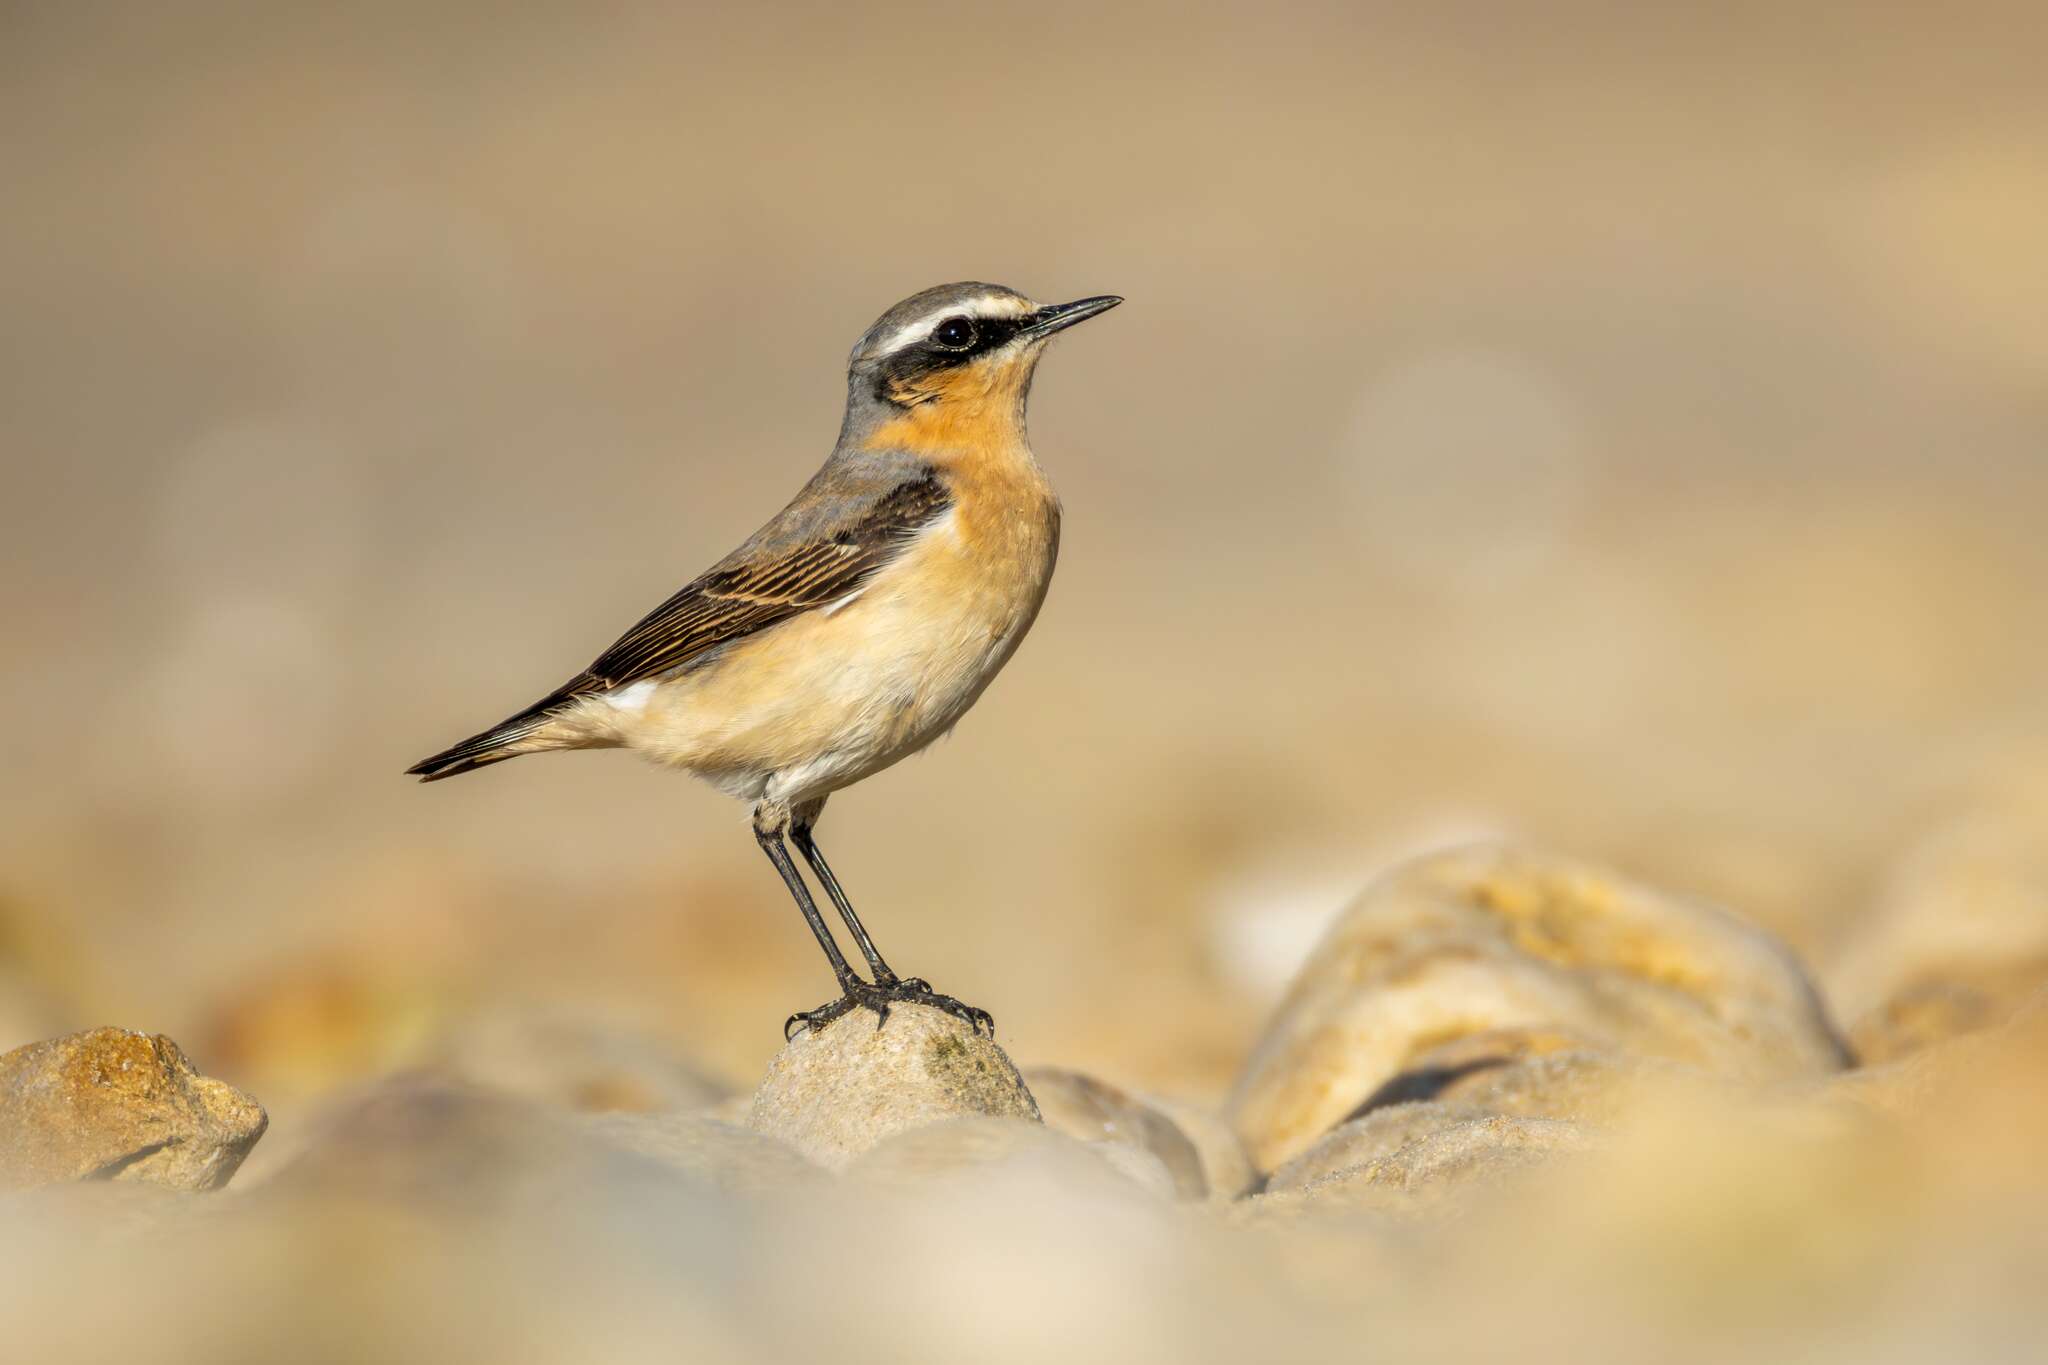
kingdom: Animalia
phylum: Chordata
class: Aves
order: Passeriformes
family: Muscicapidae
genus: Oenanthe
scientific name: Oenanthe oenanthe
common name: Northern wheatear
